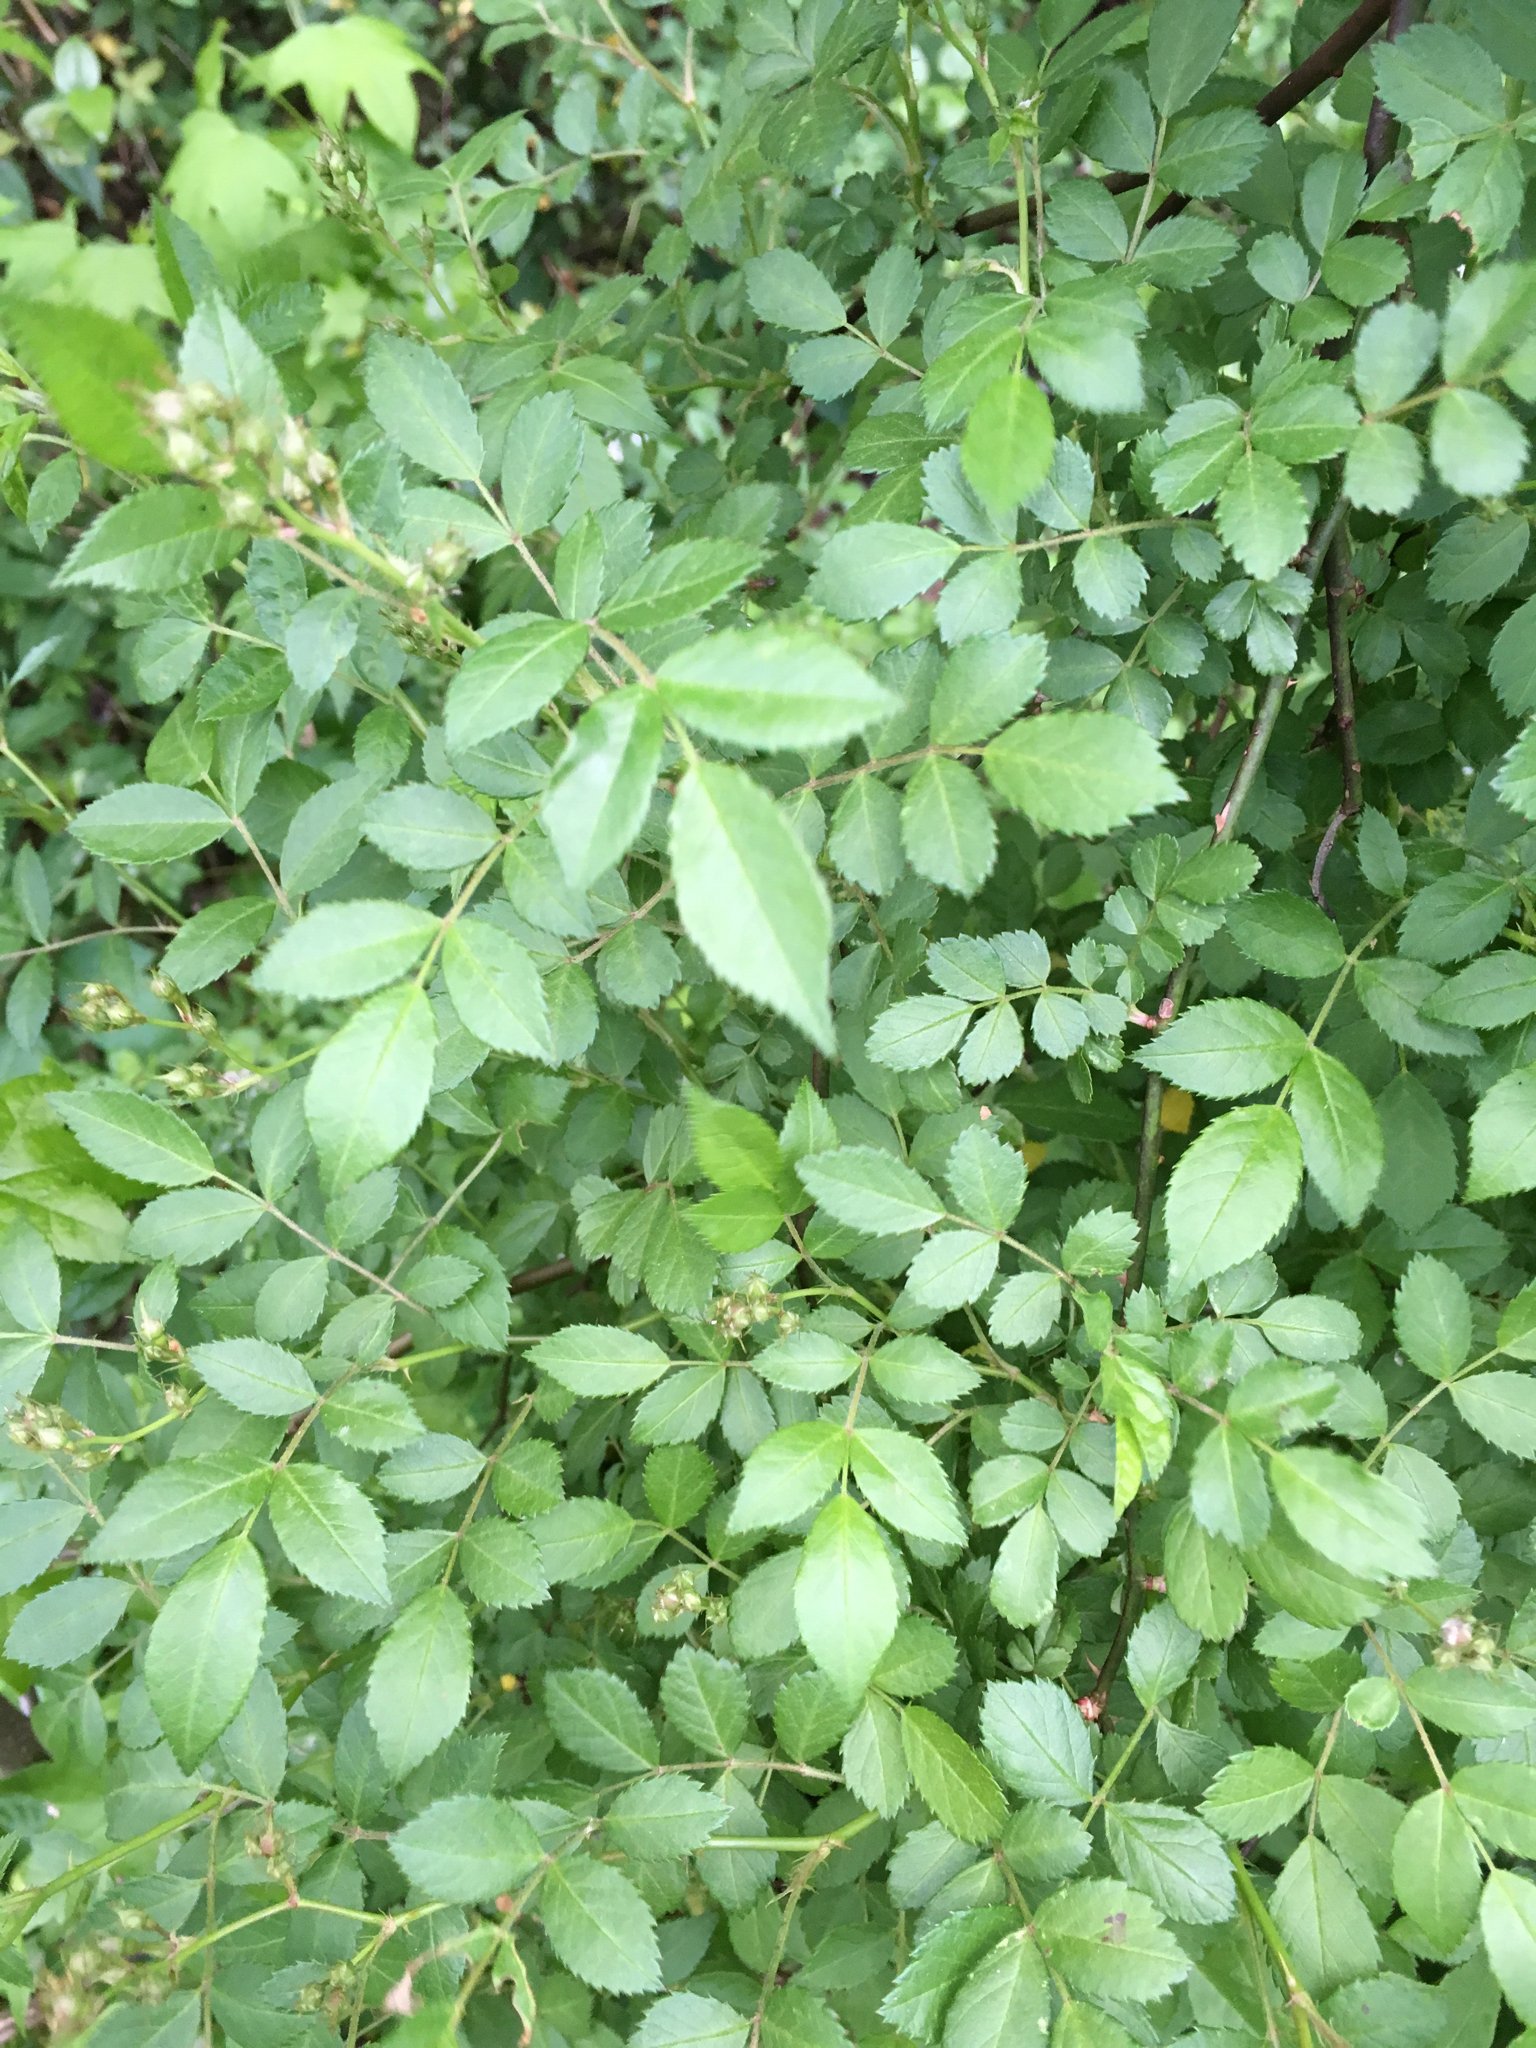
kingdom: Plantae
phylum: Tracheophyta
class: Magnoliopsida
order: Rosales
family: Rosaceae
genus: Rosa
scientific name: Rosa multiflora
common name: Multiflora rose
